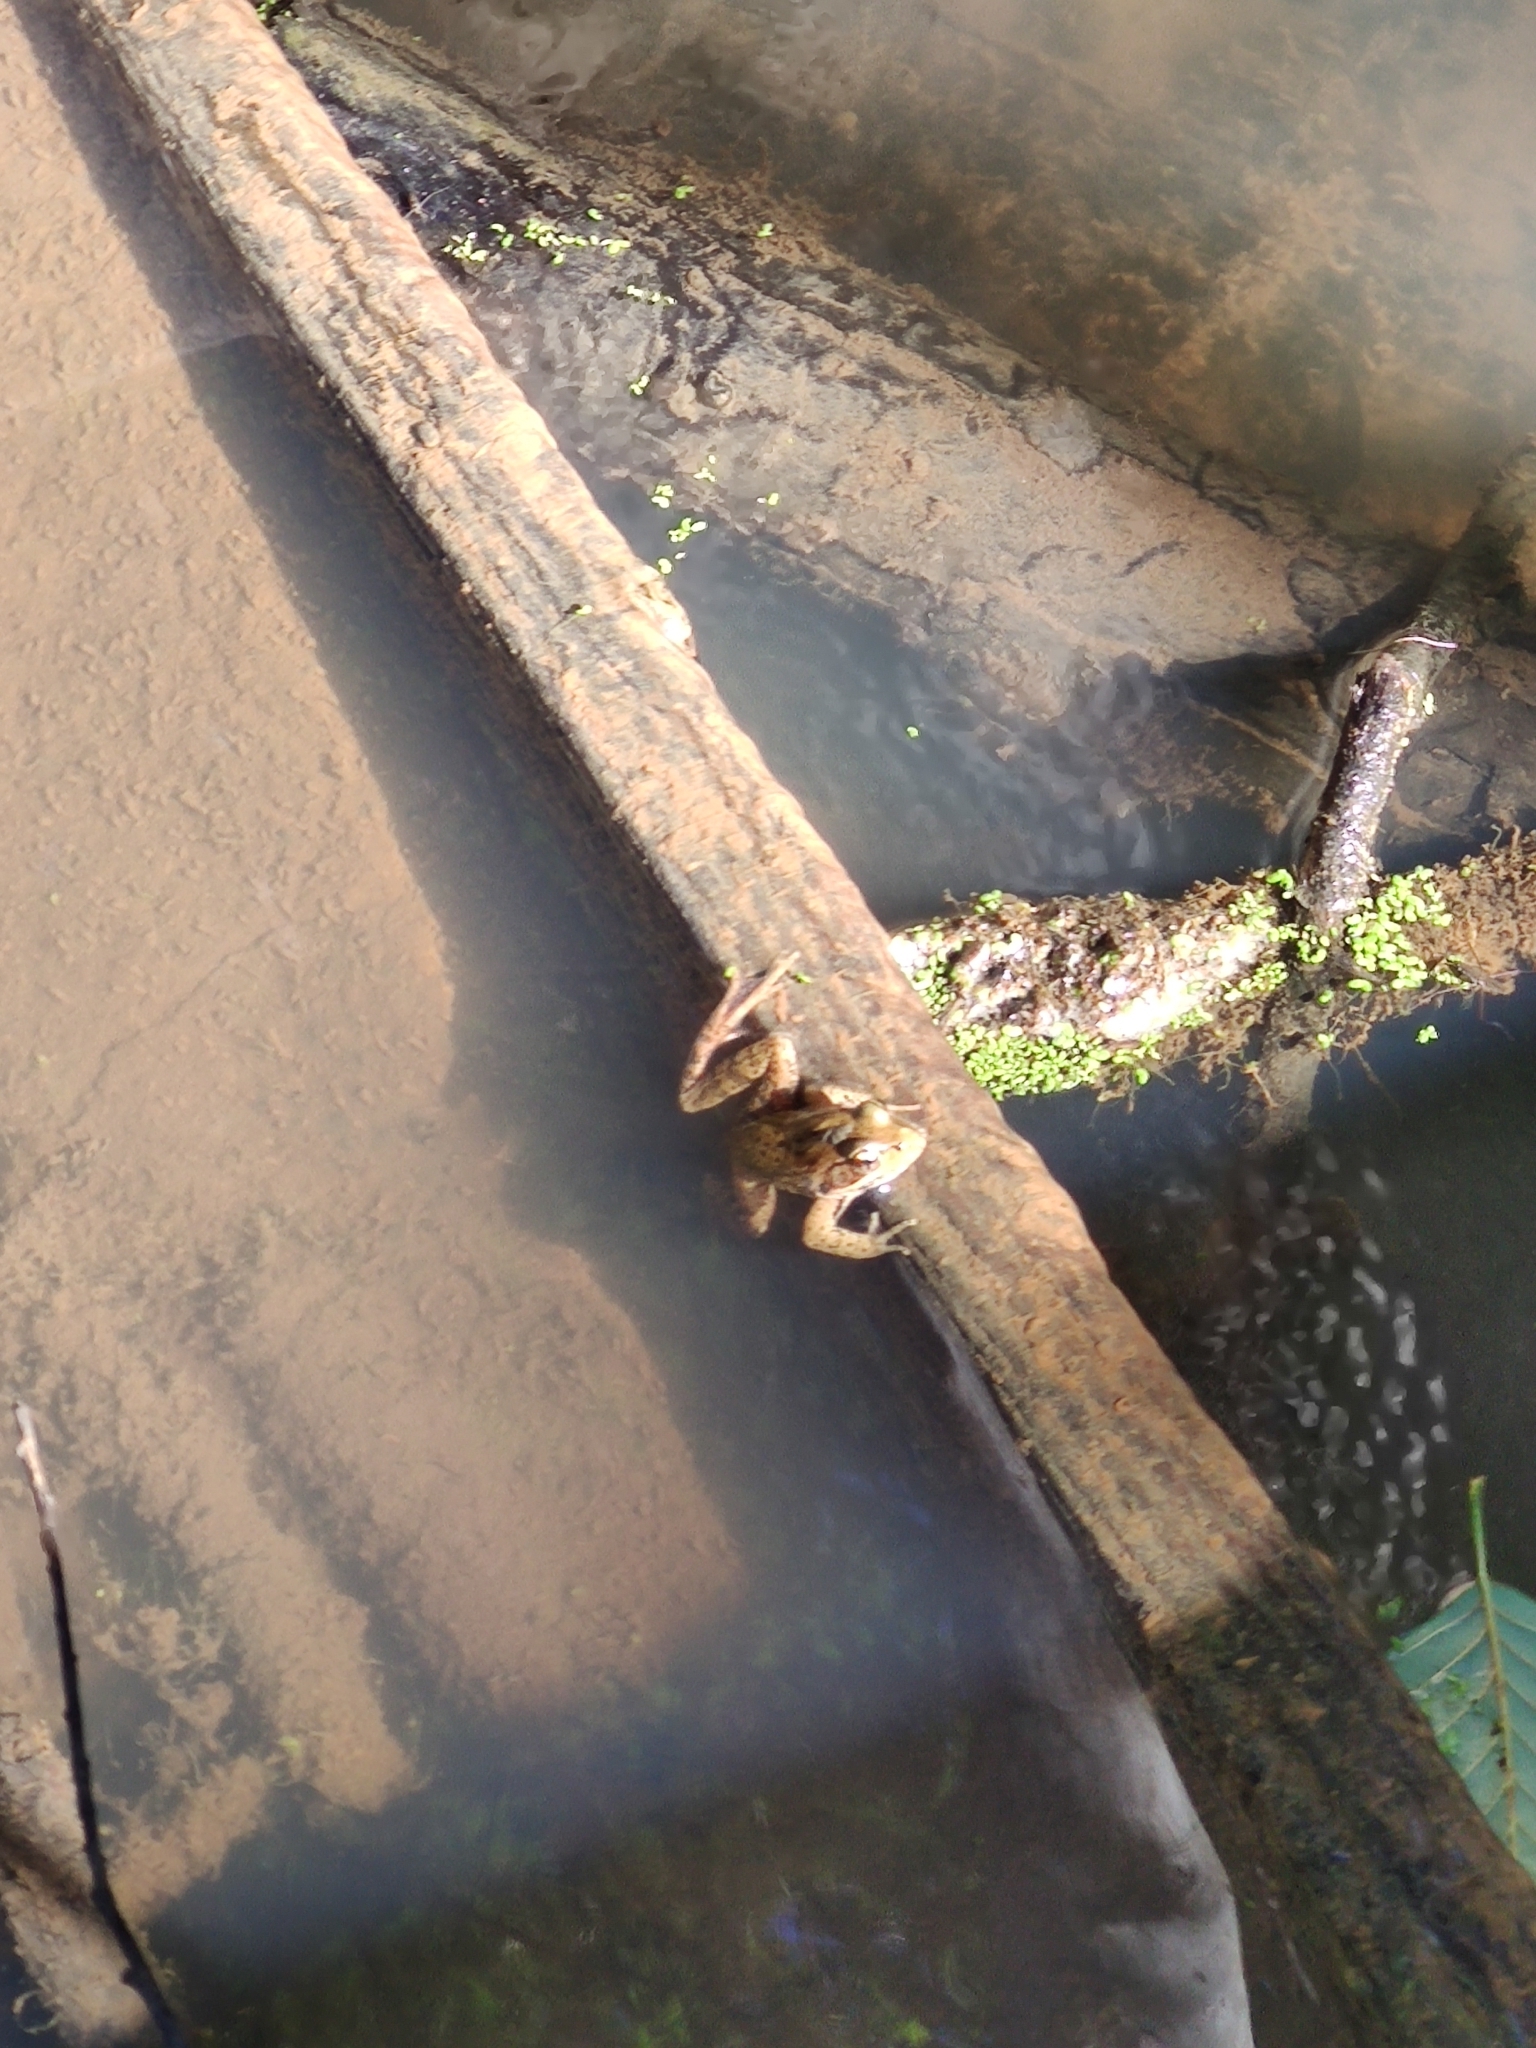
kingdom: Animalia
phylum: Chordata
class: Amphibia
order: Anura
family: Ranidae
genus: Rana
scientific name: Rana aurora
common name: Red-legged frog
